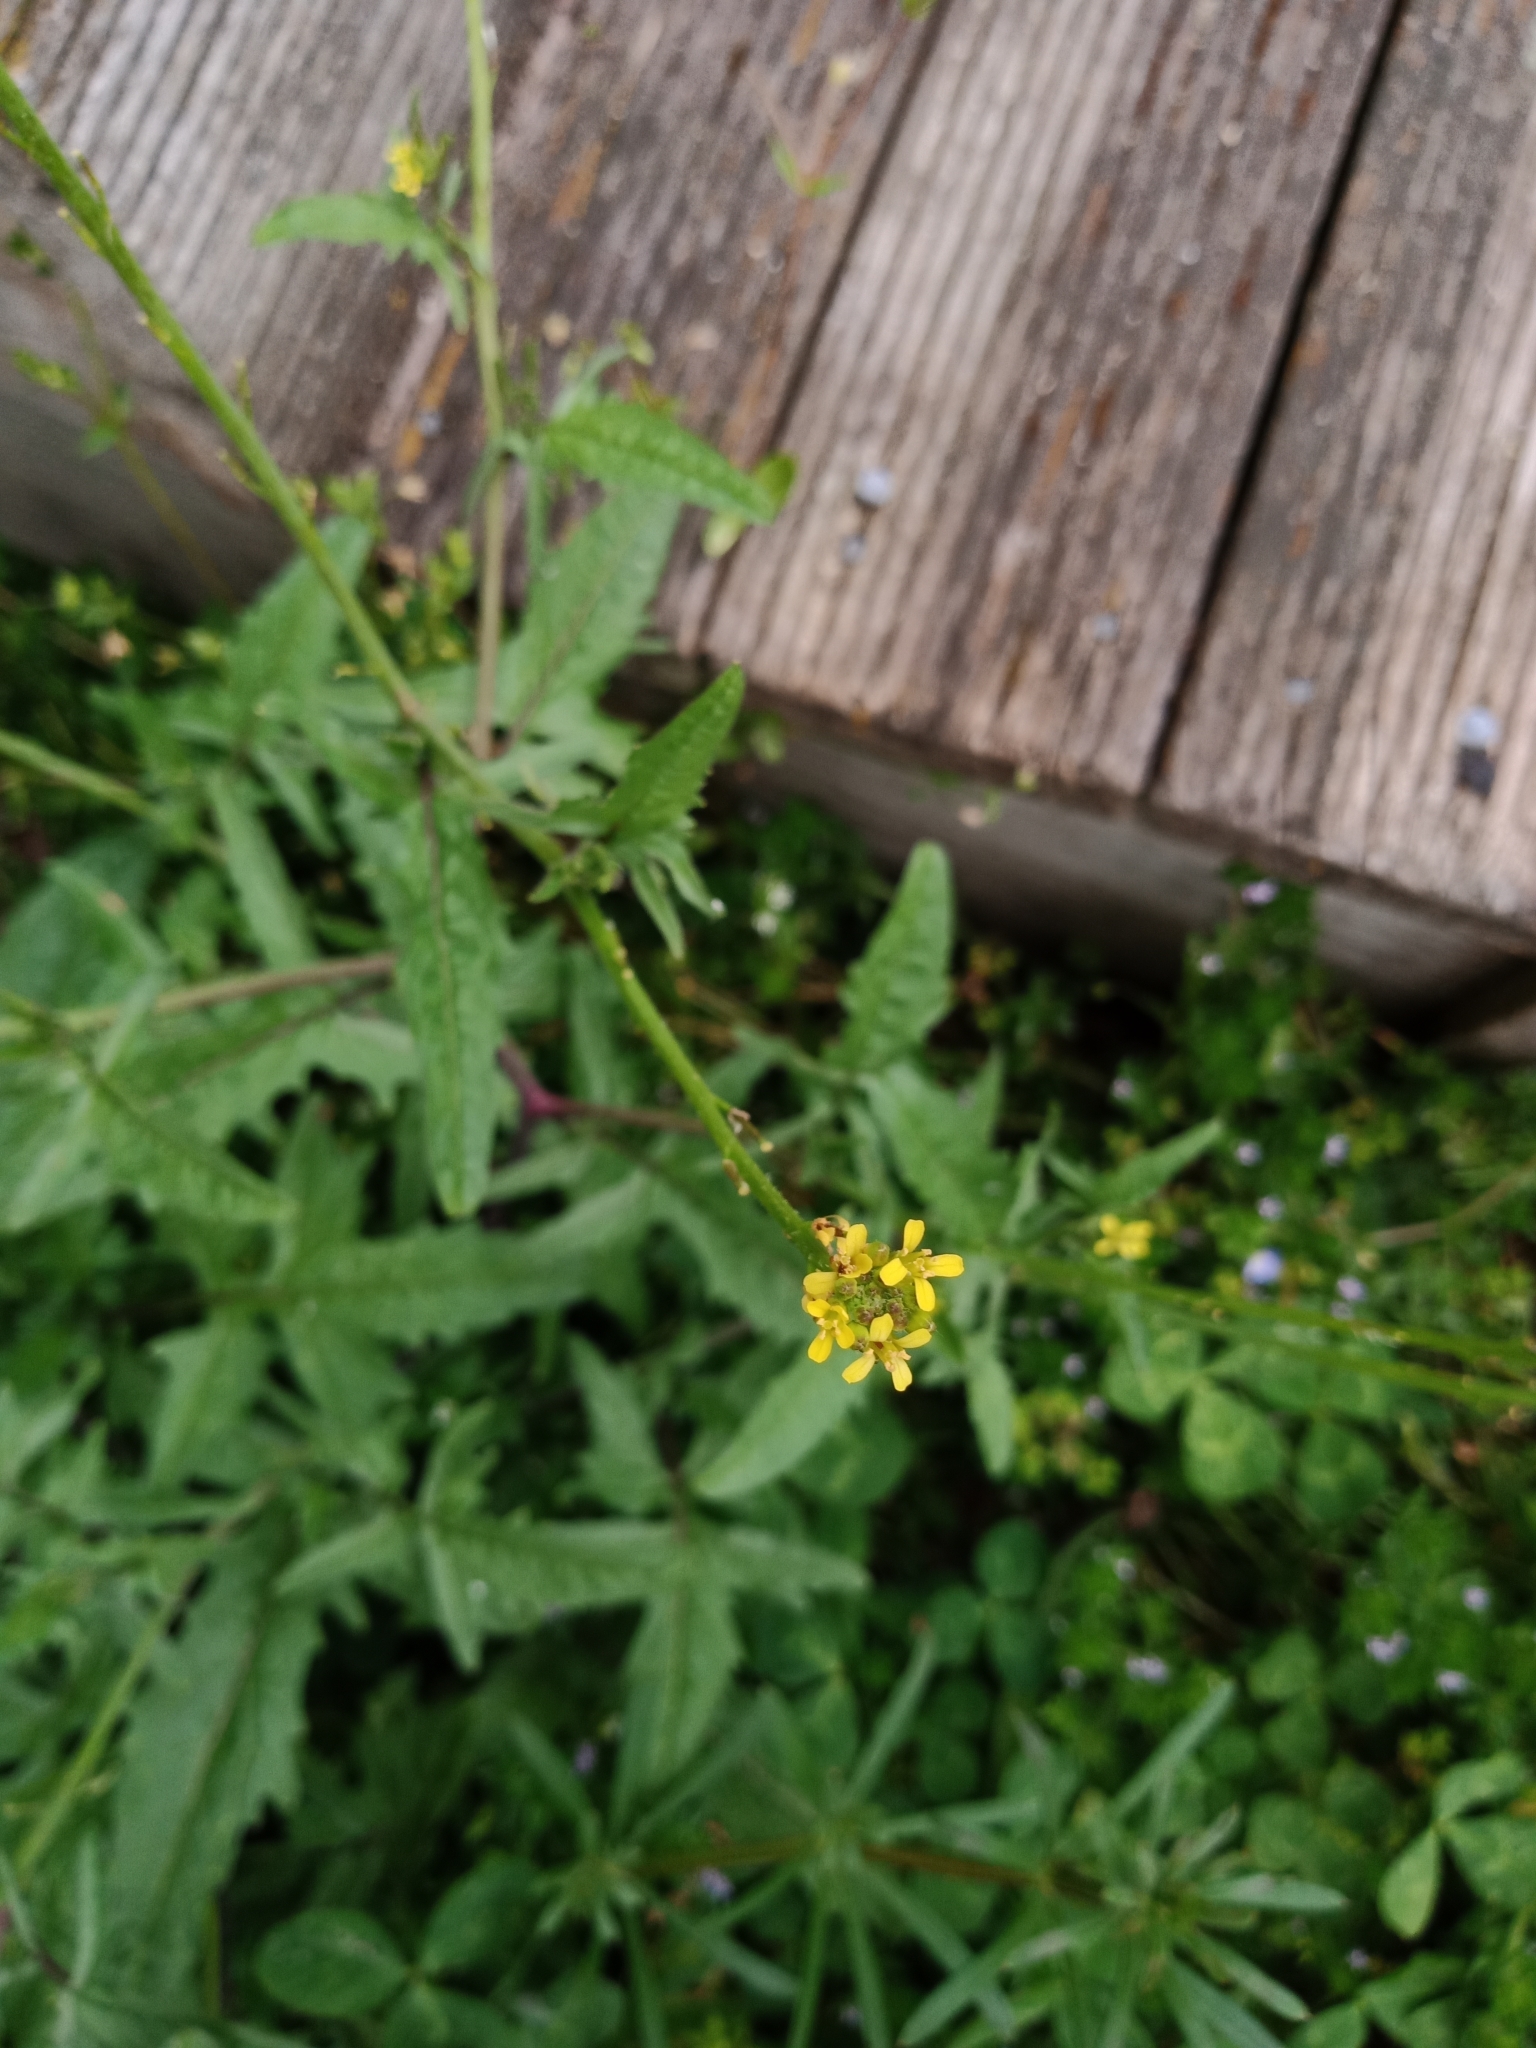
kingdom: Plantae
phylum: Tracheophyta
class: Magnoliopsida
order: Brassicales
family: Brassicaceae
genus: Sisymbrium
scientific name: Sisymbrium officinale
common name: Hedge mustard
